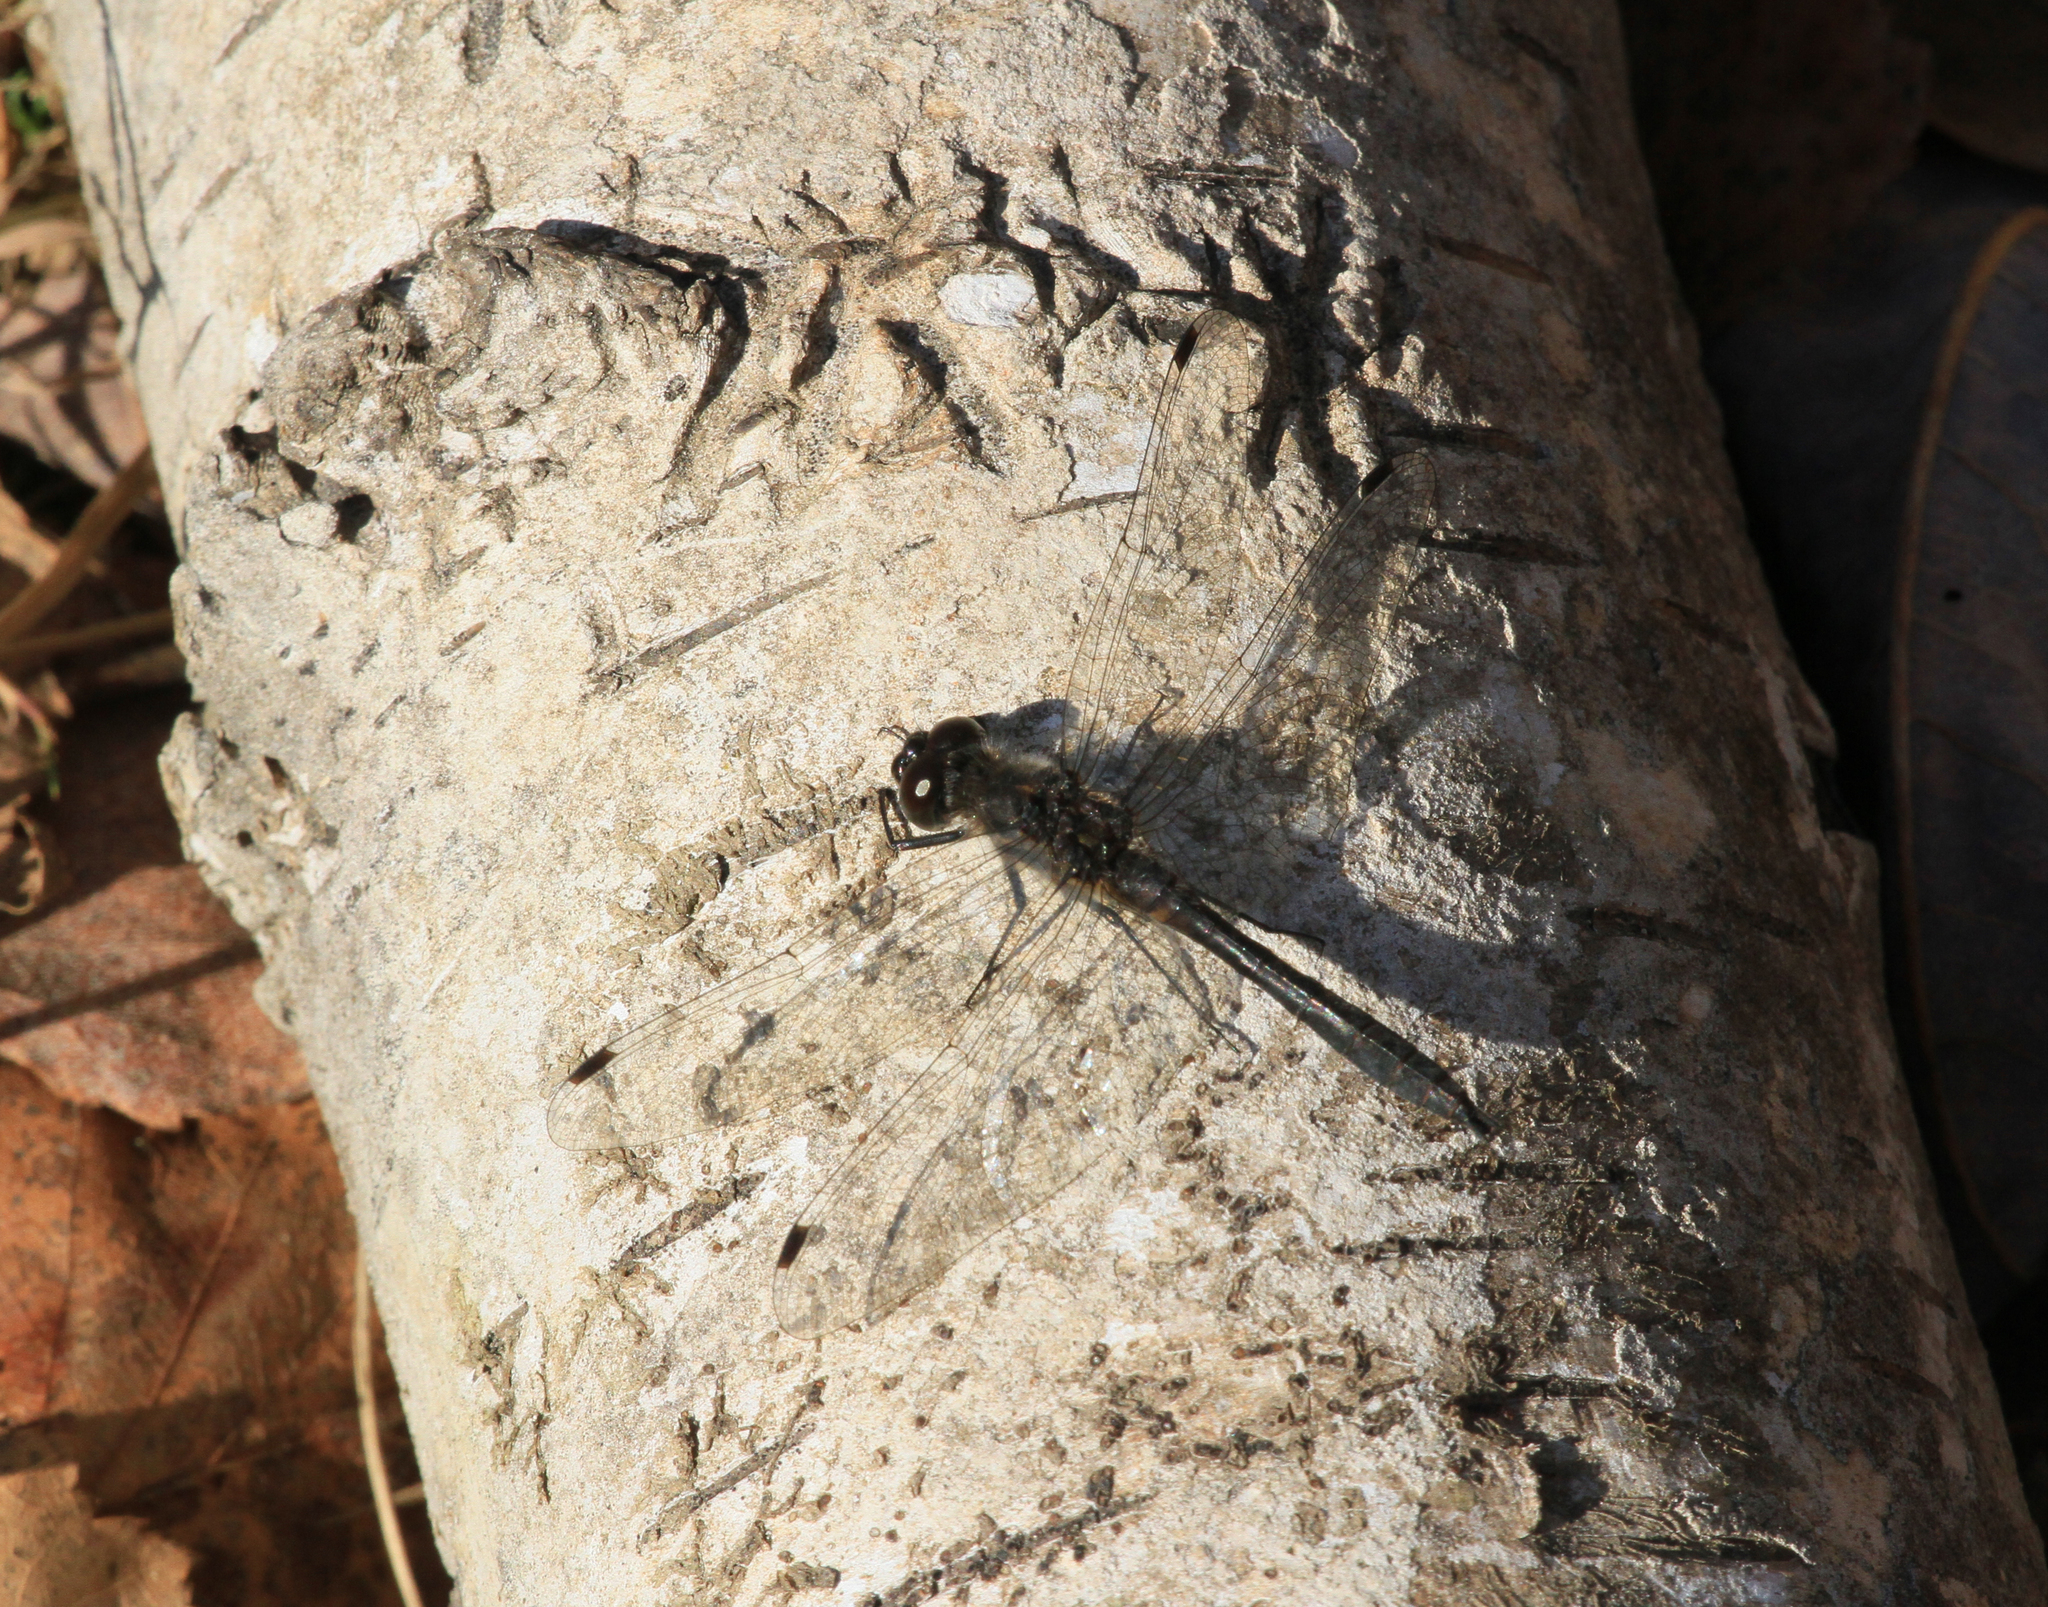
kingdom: Animalia
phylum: Arthropoda
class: Insecta
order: Odonata
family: Libellulidae
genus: Sympetrum
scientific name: Sympetrum danae
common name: Black darter
